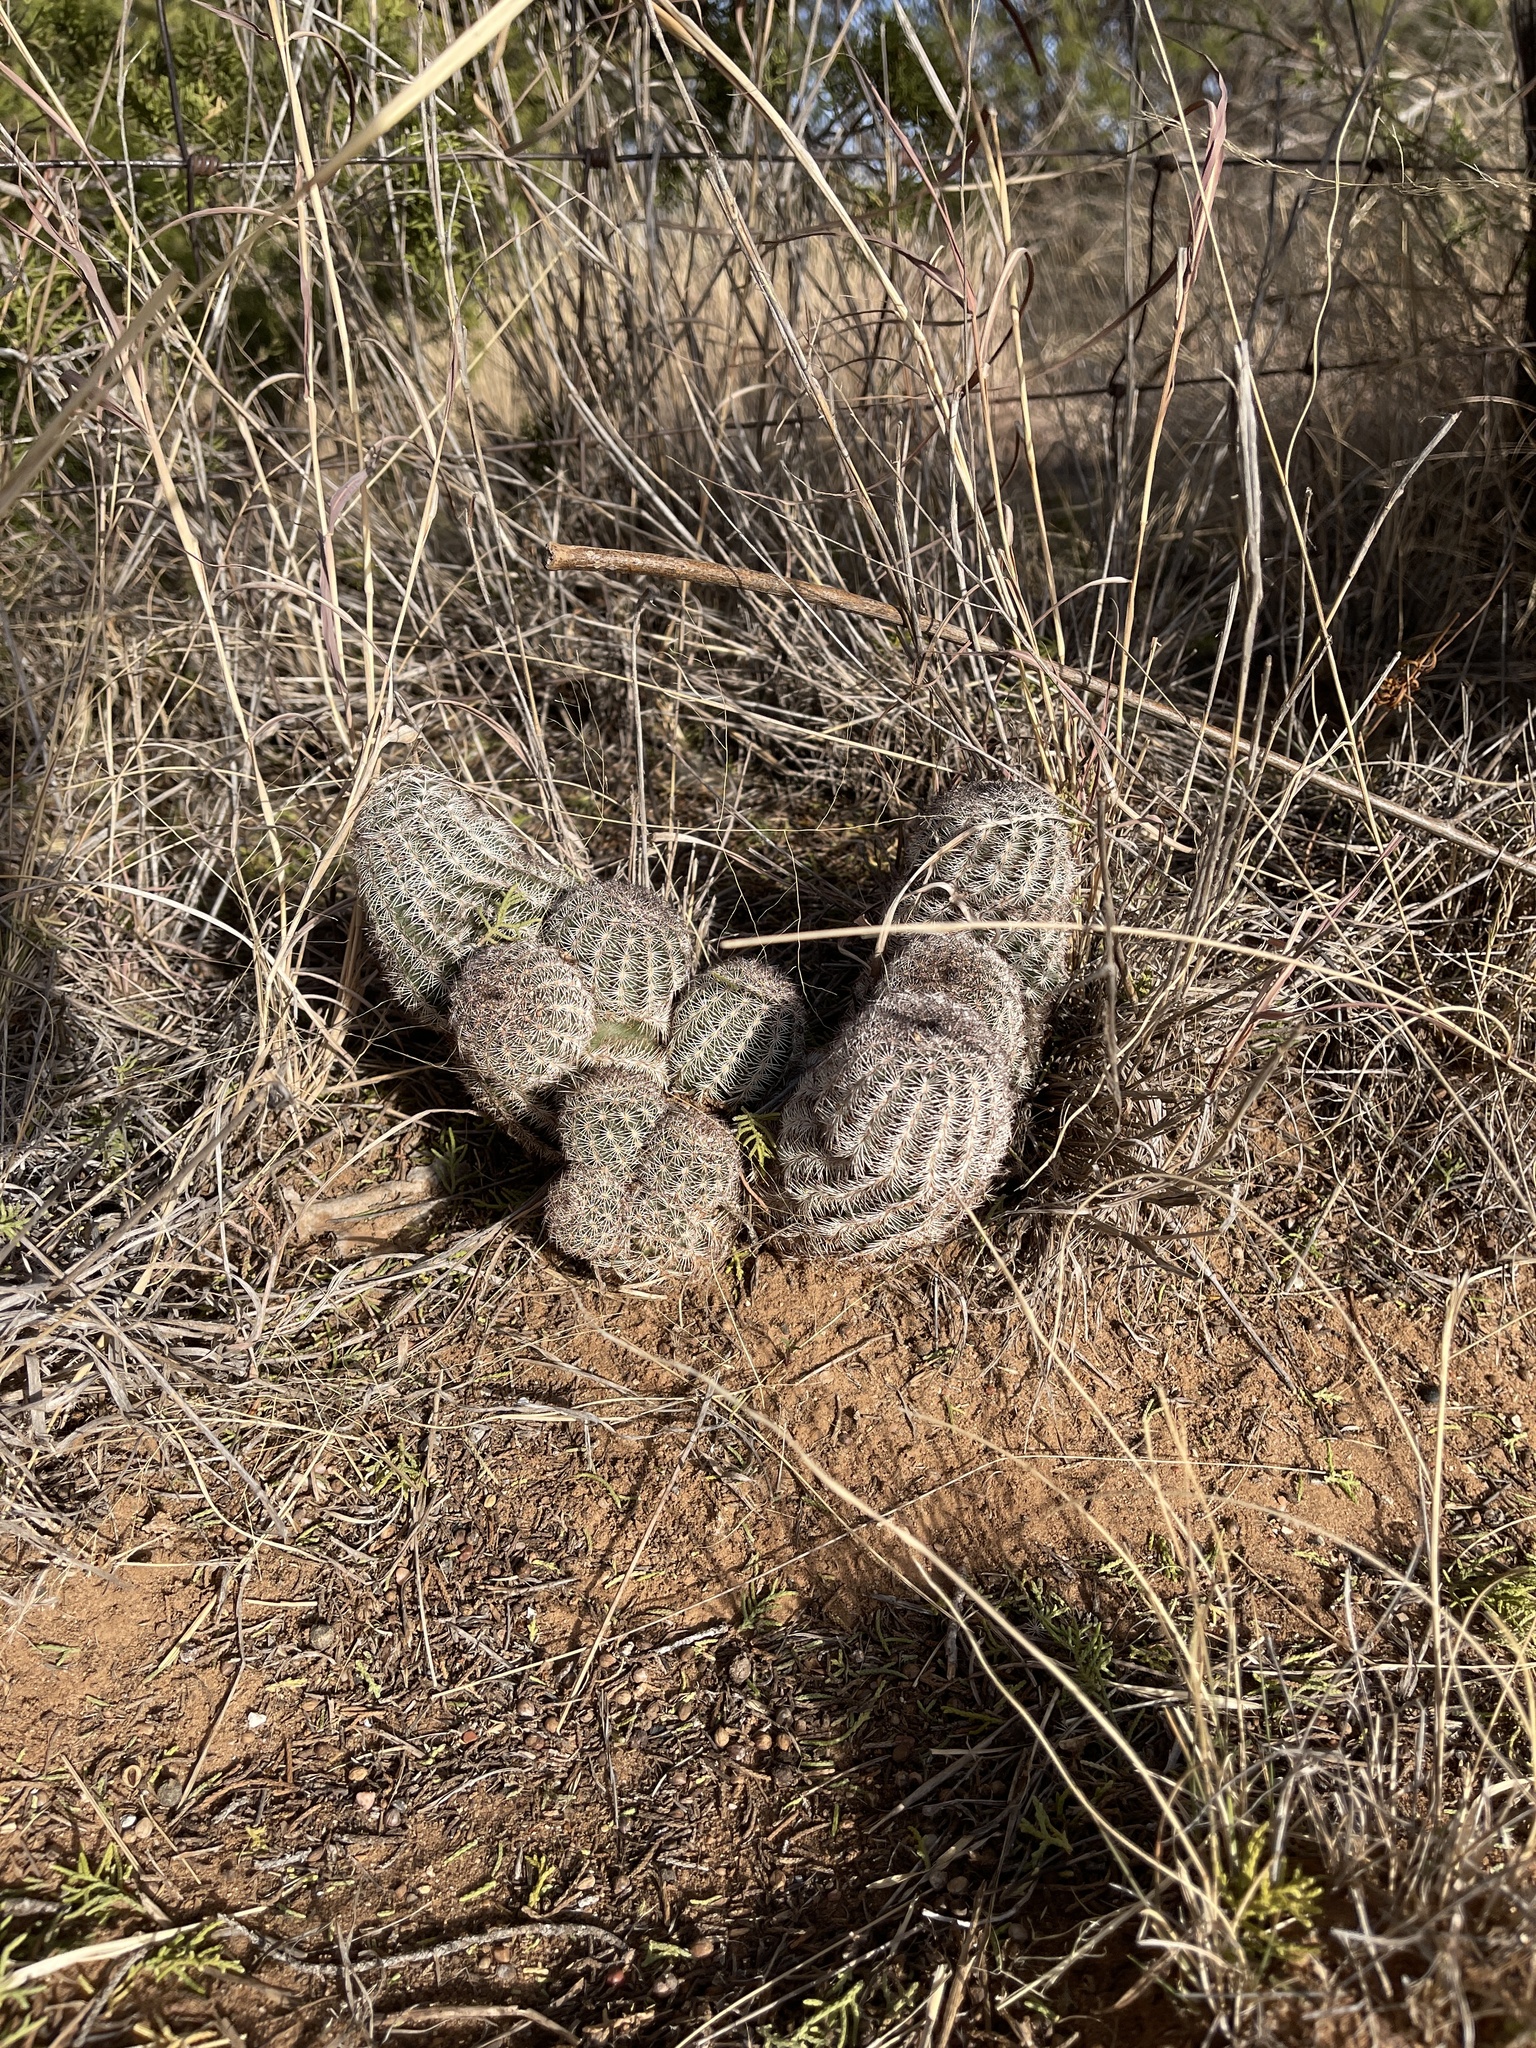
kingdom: Plantae
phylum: Tracheophyta
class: Magnoliopsida
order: Caryophyllales
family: Cactaceae
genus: Echinocereus
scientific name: Echinocereus reichenbachii
